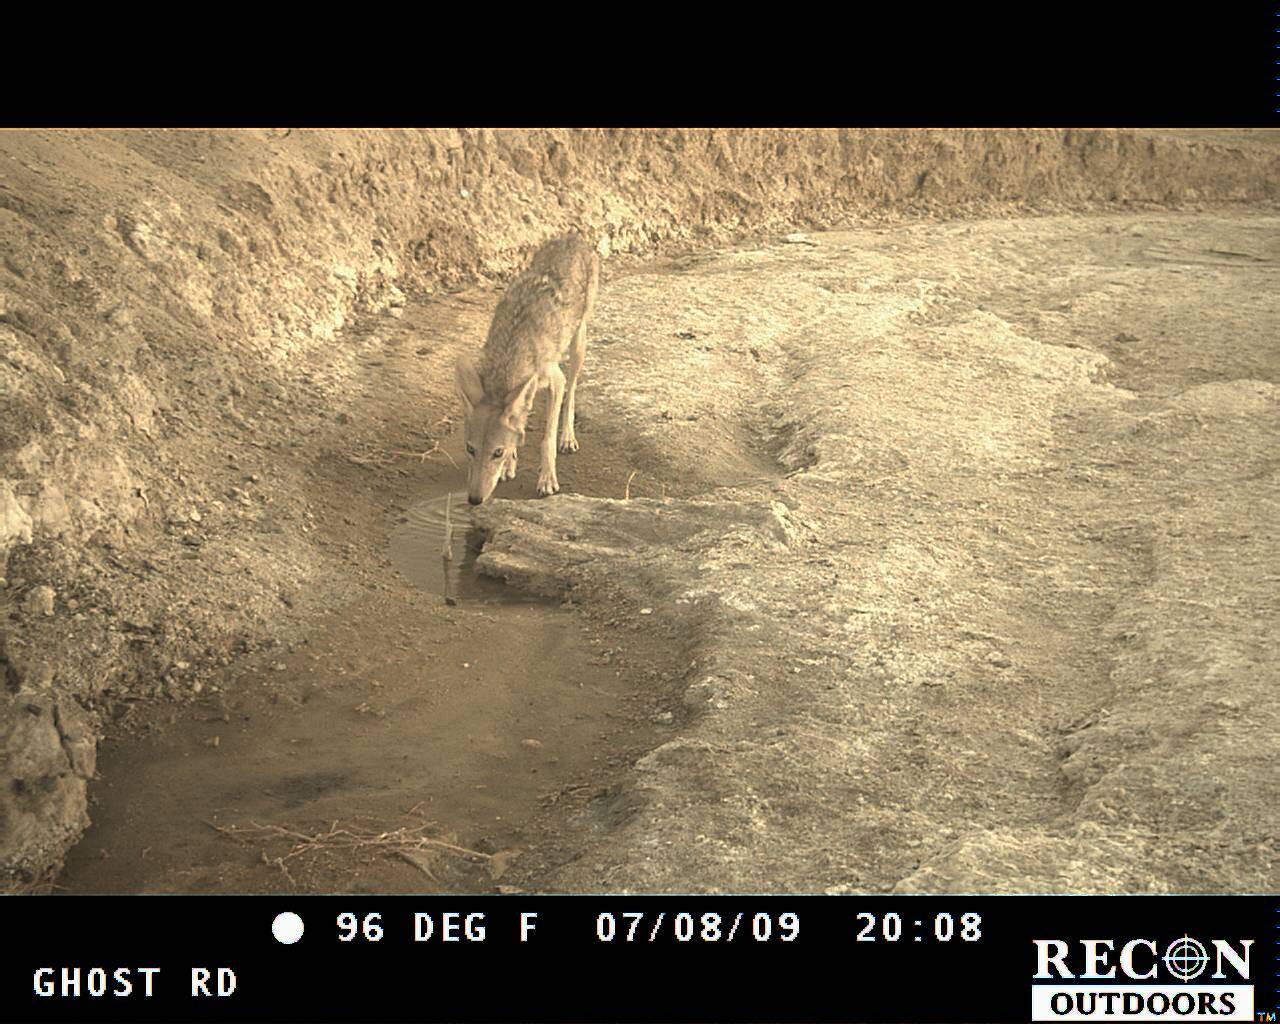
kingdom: Animalia
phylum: Chordata
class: Mammalia
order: Carnivora
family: Canidae
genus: Canis
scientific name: Canis latrans
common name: Coyote
